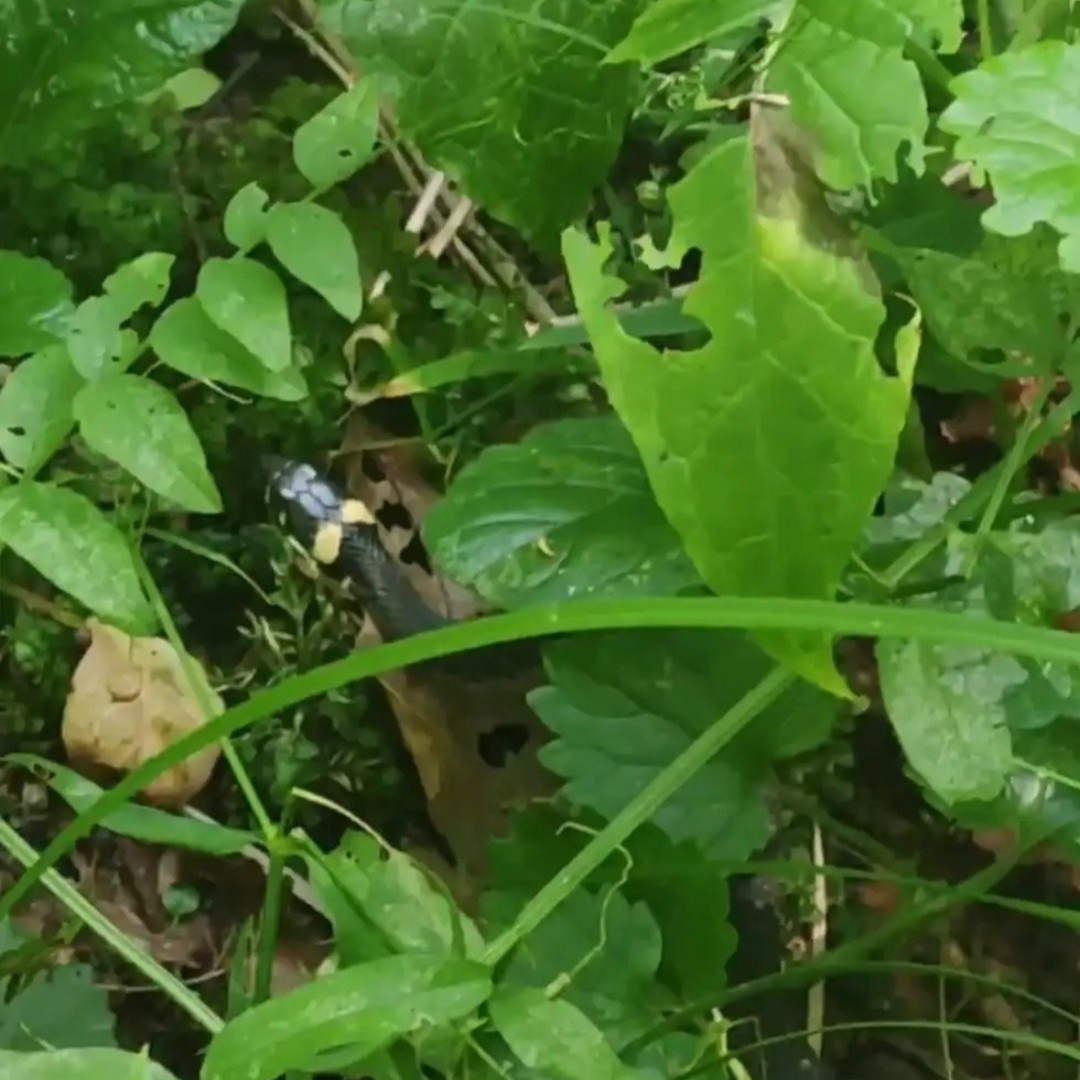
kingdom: Animalia
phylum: Chordata
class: Squamata
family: Colubridae
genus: Natrix
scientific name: Natrix natrix
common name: Grass snake
